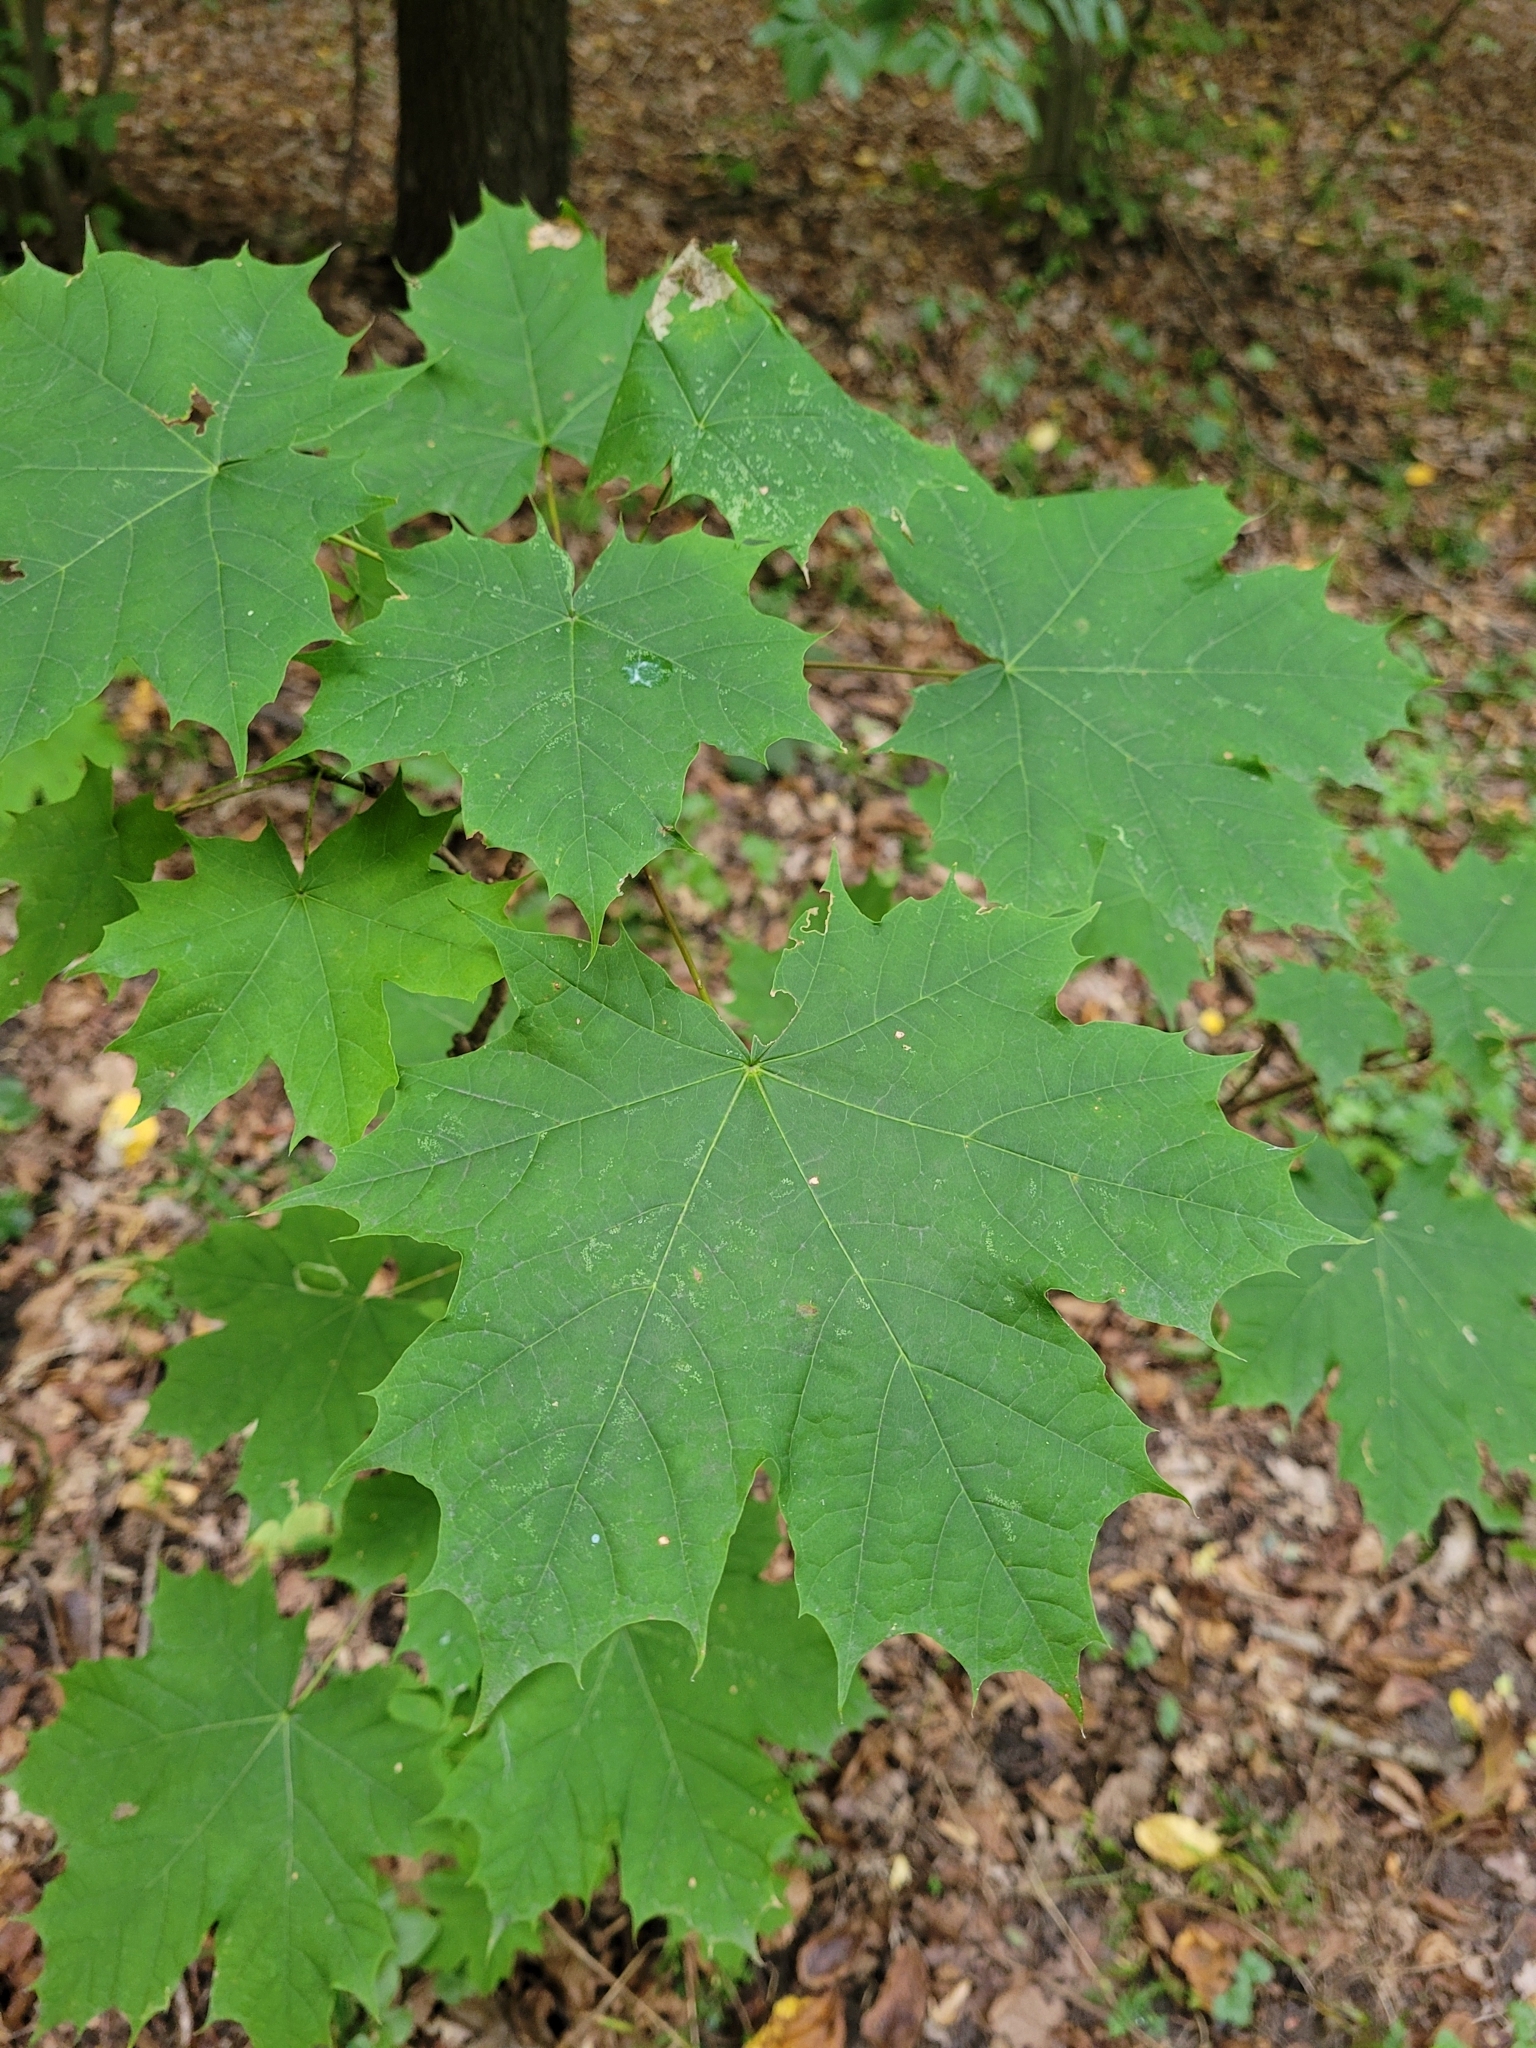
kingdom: Plantae
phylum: Tracheophyta
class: Magnoliopsida
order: Sapindales
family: Sapindaceae
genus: Acer
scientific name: Acer platanoides
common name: Norway maple
